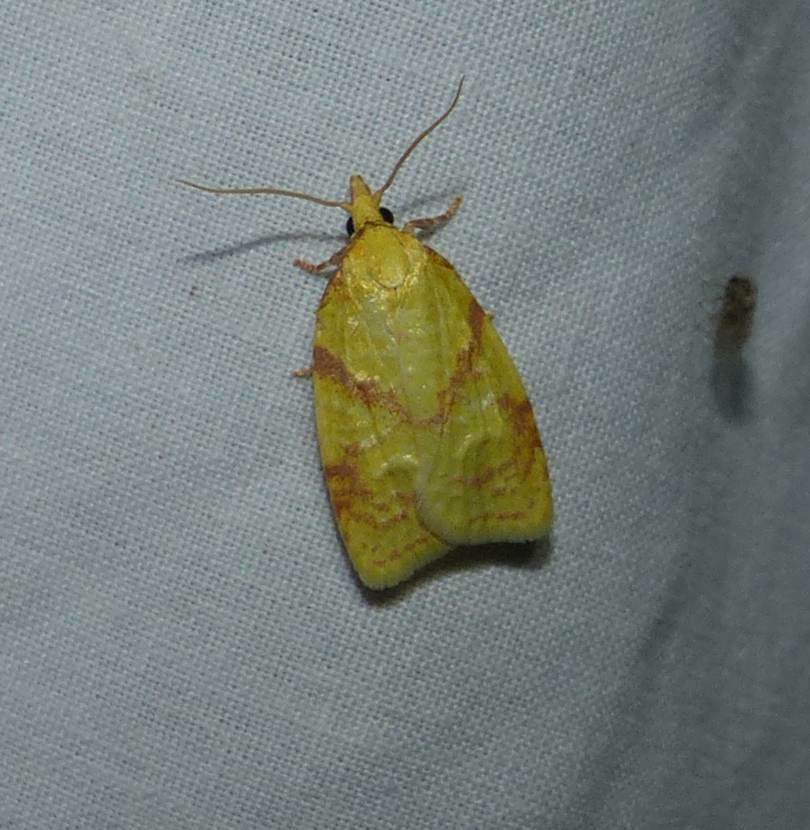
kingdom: Animalia
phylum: Arthropoda
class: Insecta
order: Lepidoptera
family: Tortricidae
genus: Cenopis
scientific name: Cenopis pettitana
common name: Maple-basswood leafroller moth
